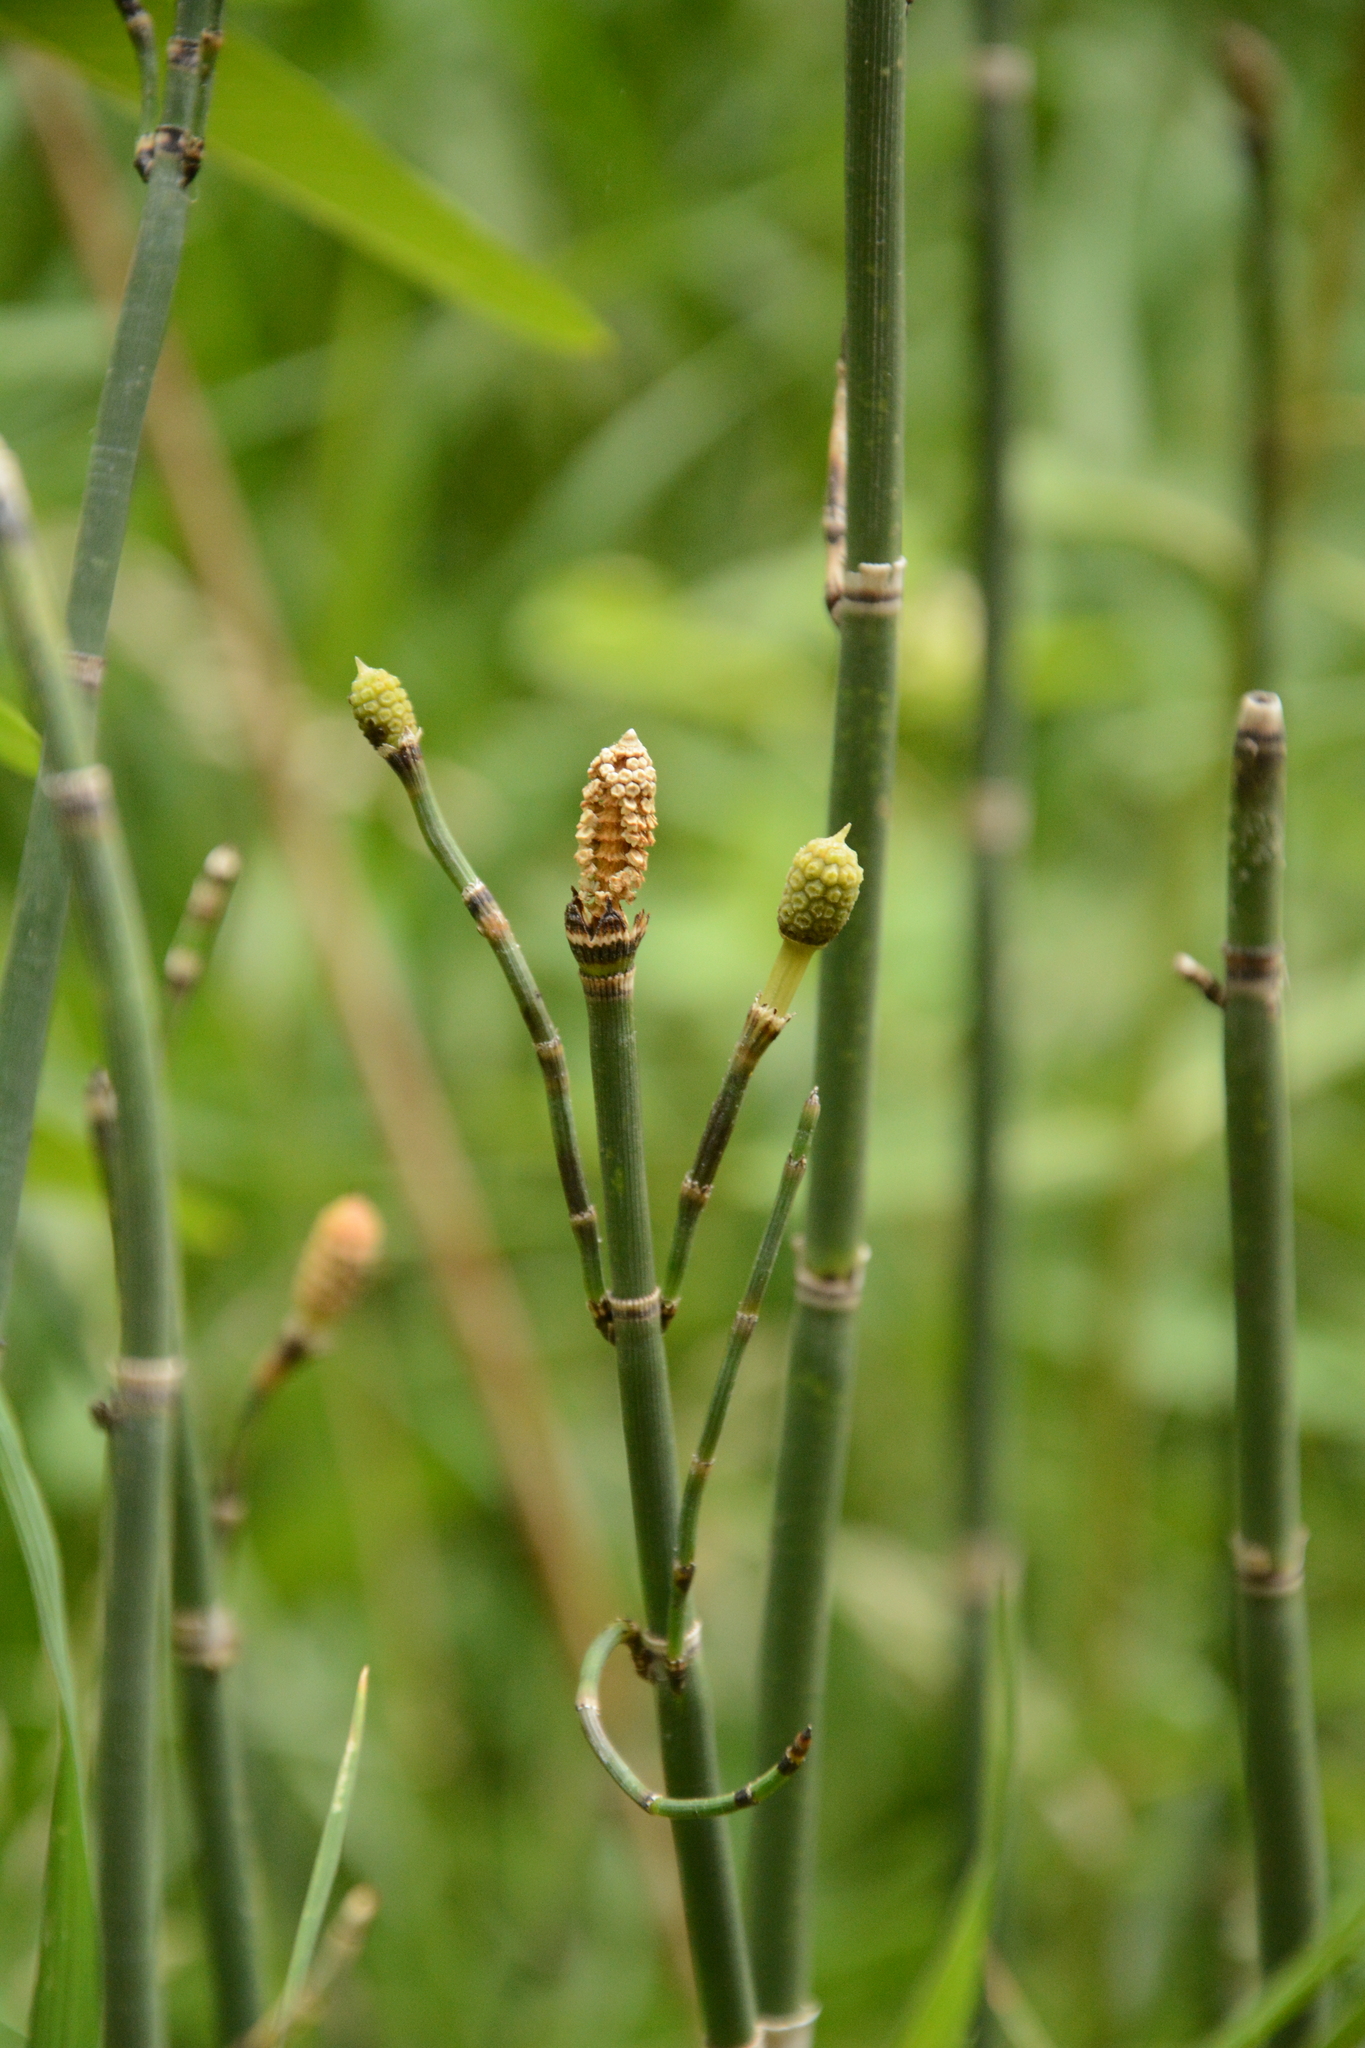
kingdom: Plantae
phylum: Tracheophyta
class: Polypodiopsida
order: Equisetales
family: Equisetaceae
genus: Equisetum
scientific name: Equisetum praealtum
